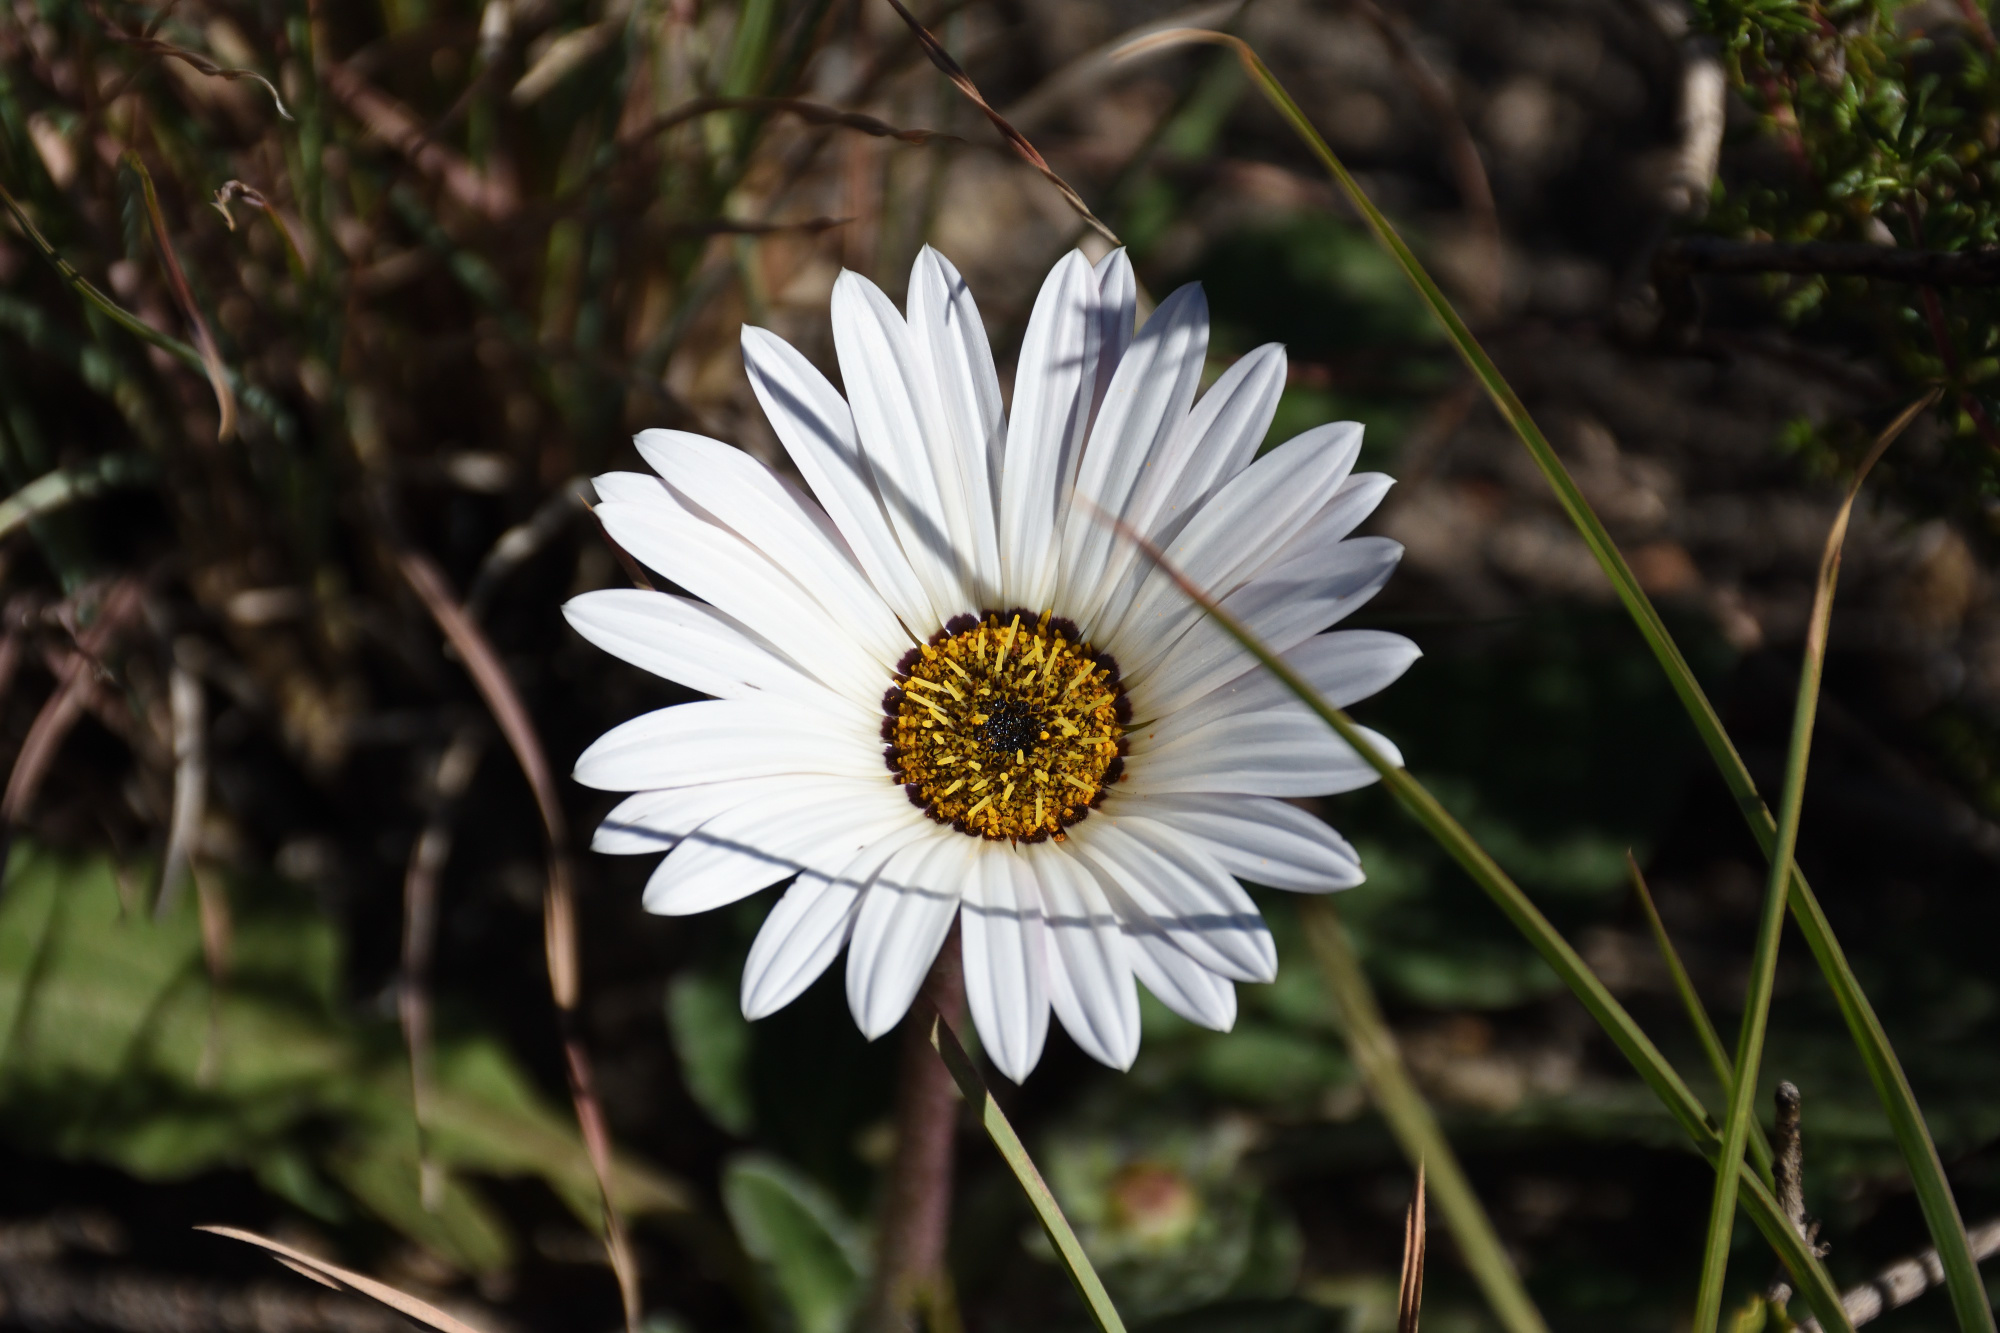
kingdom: Plantae
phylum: Tracheophyta
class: Magnoliopsida
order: Asterales
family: Asteraceae
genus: Arctotis
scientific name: Arctotis acaulis
